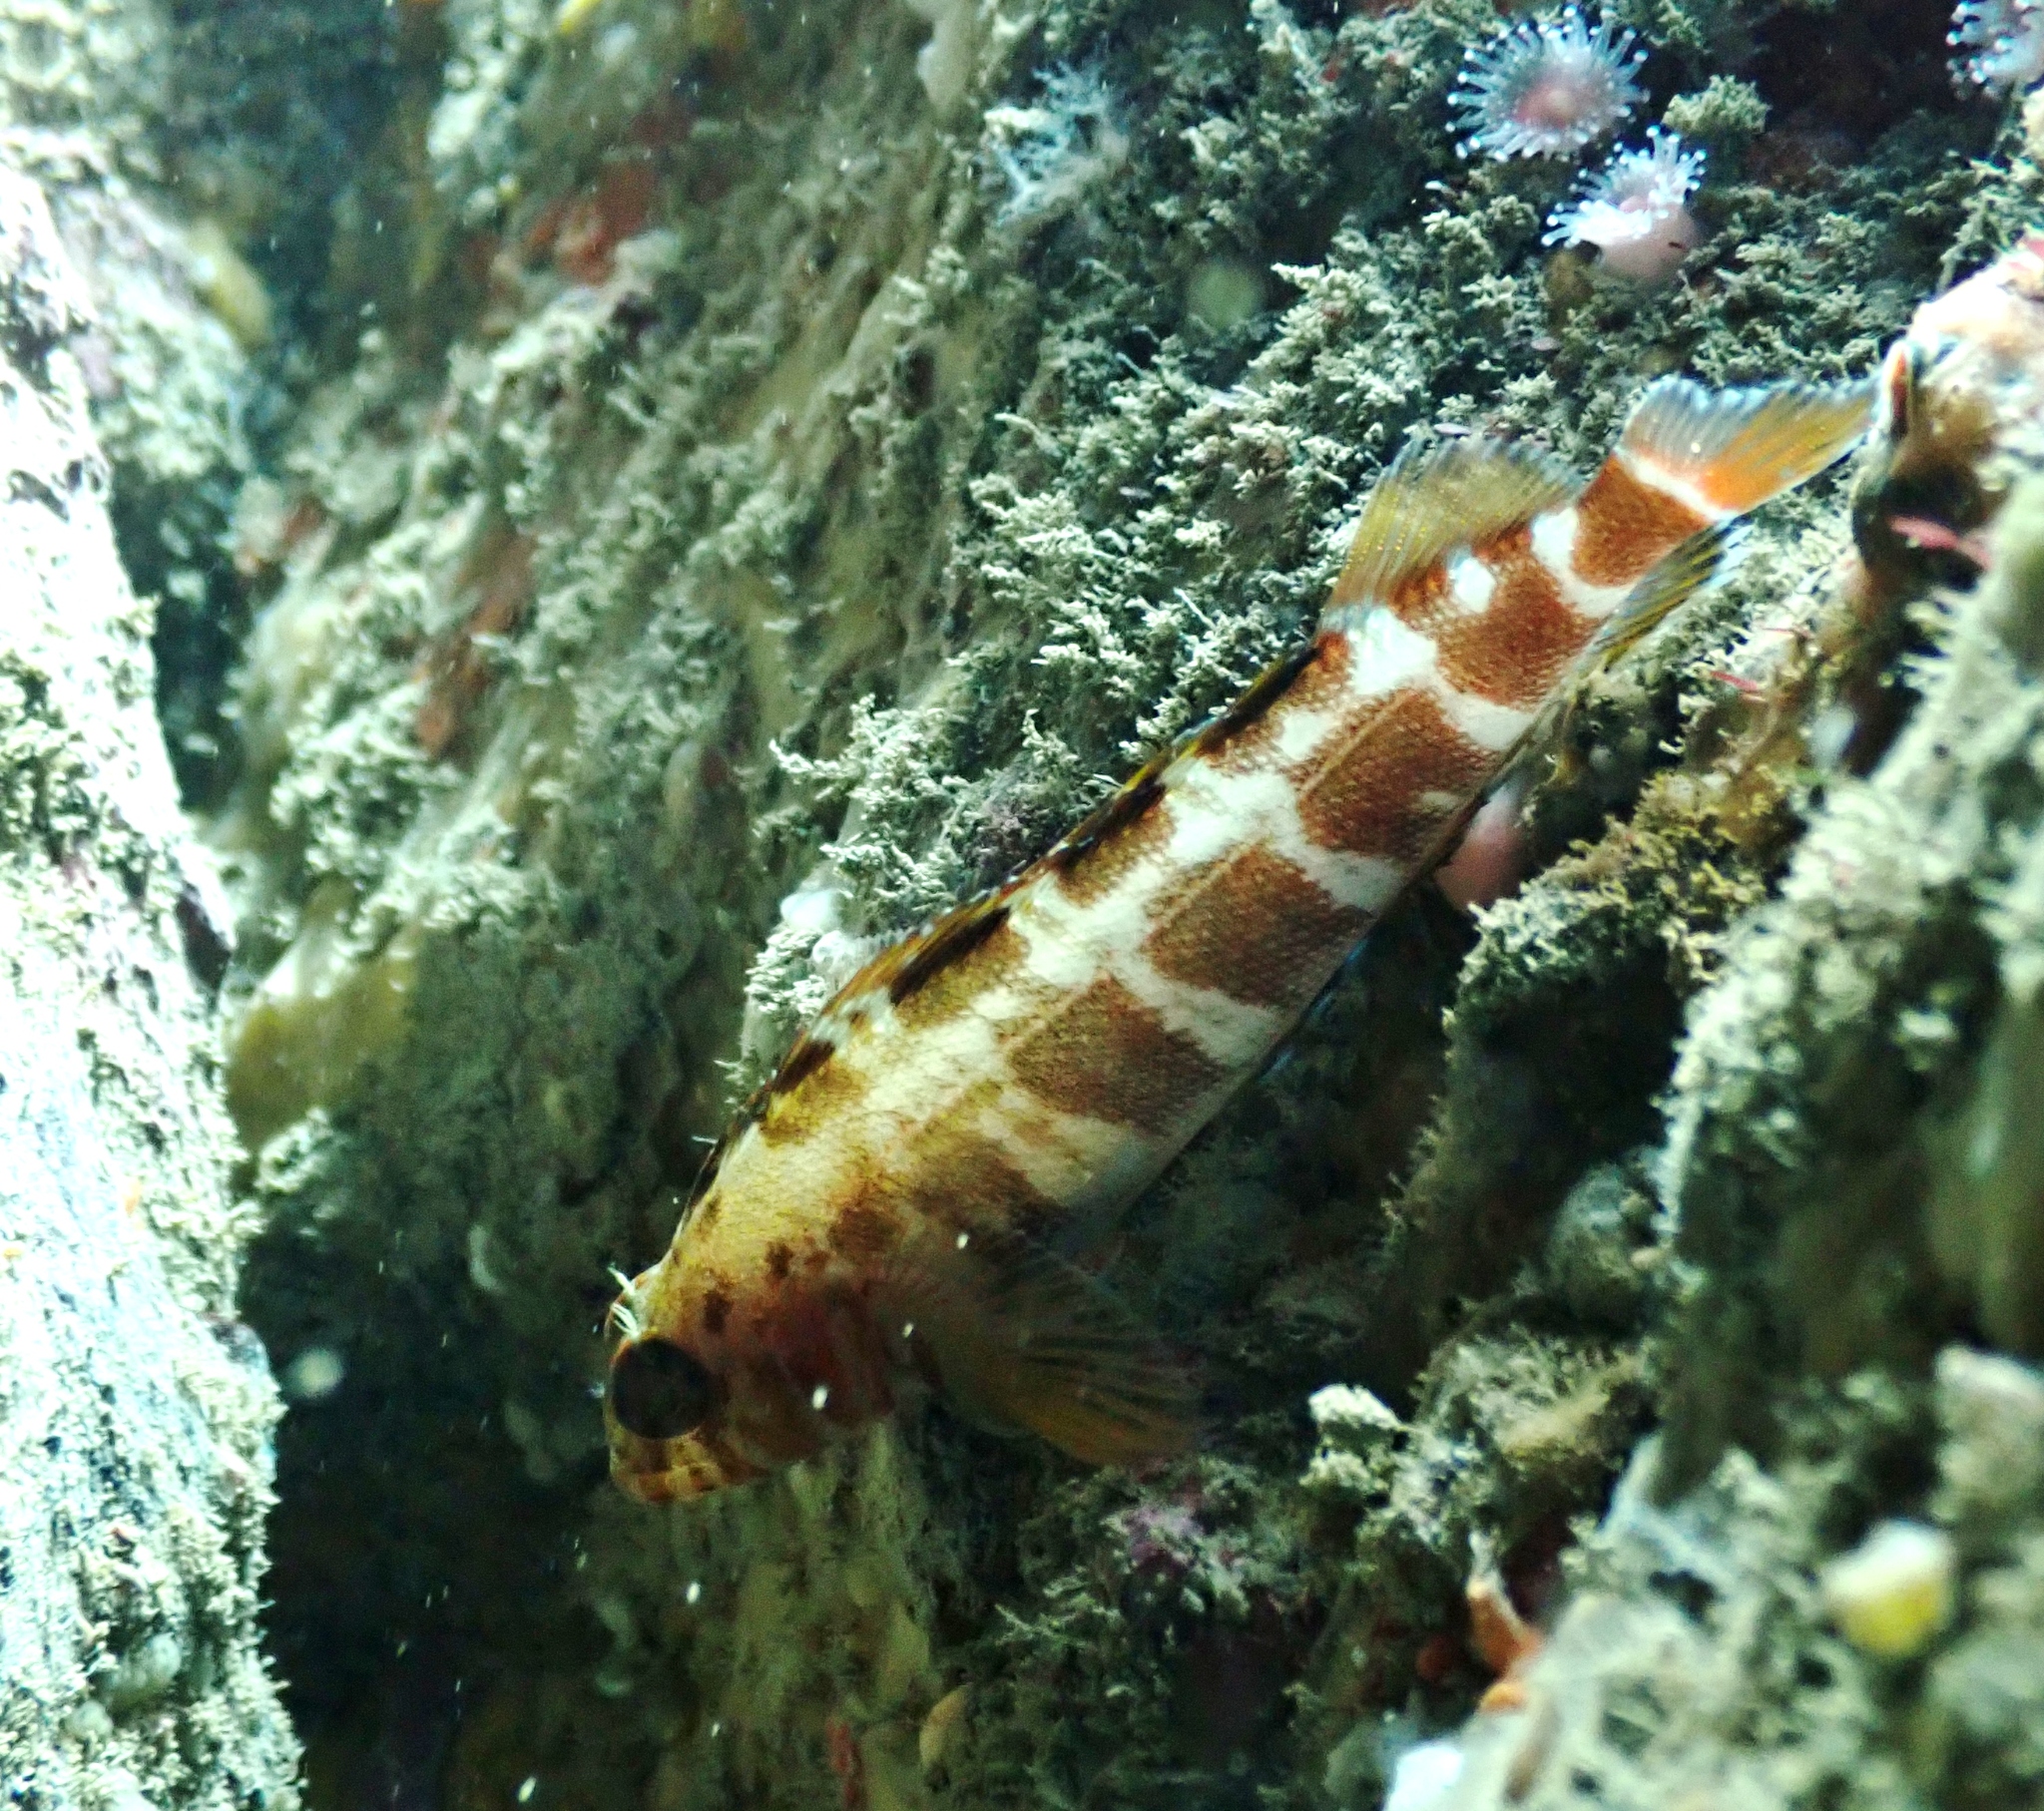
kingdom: Animalia
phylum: Chordata
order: Perciformes
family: Tripterygiidae
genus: Forsterygion
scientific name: Forsterygion malcolmi
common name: Mottled triplefin
